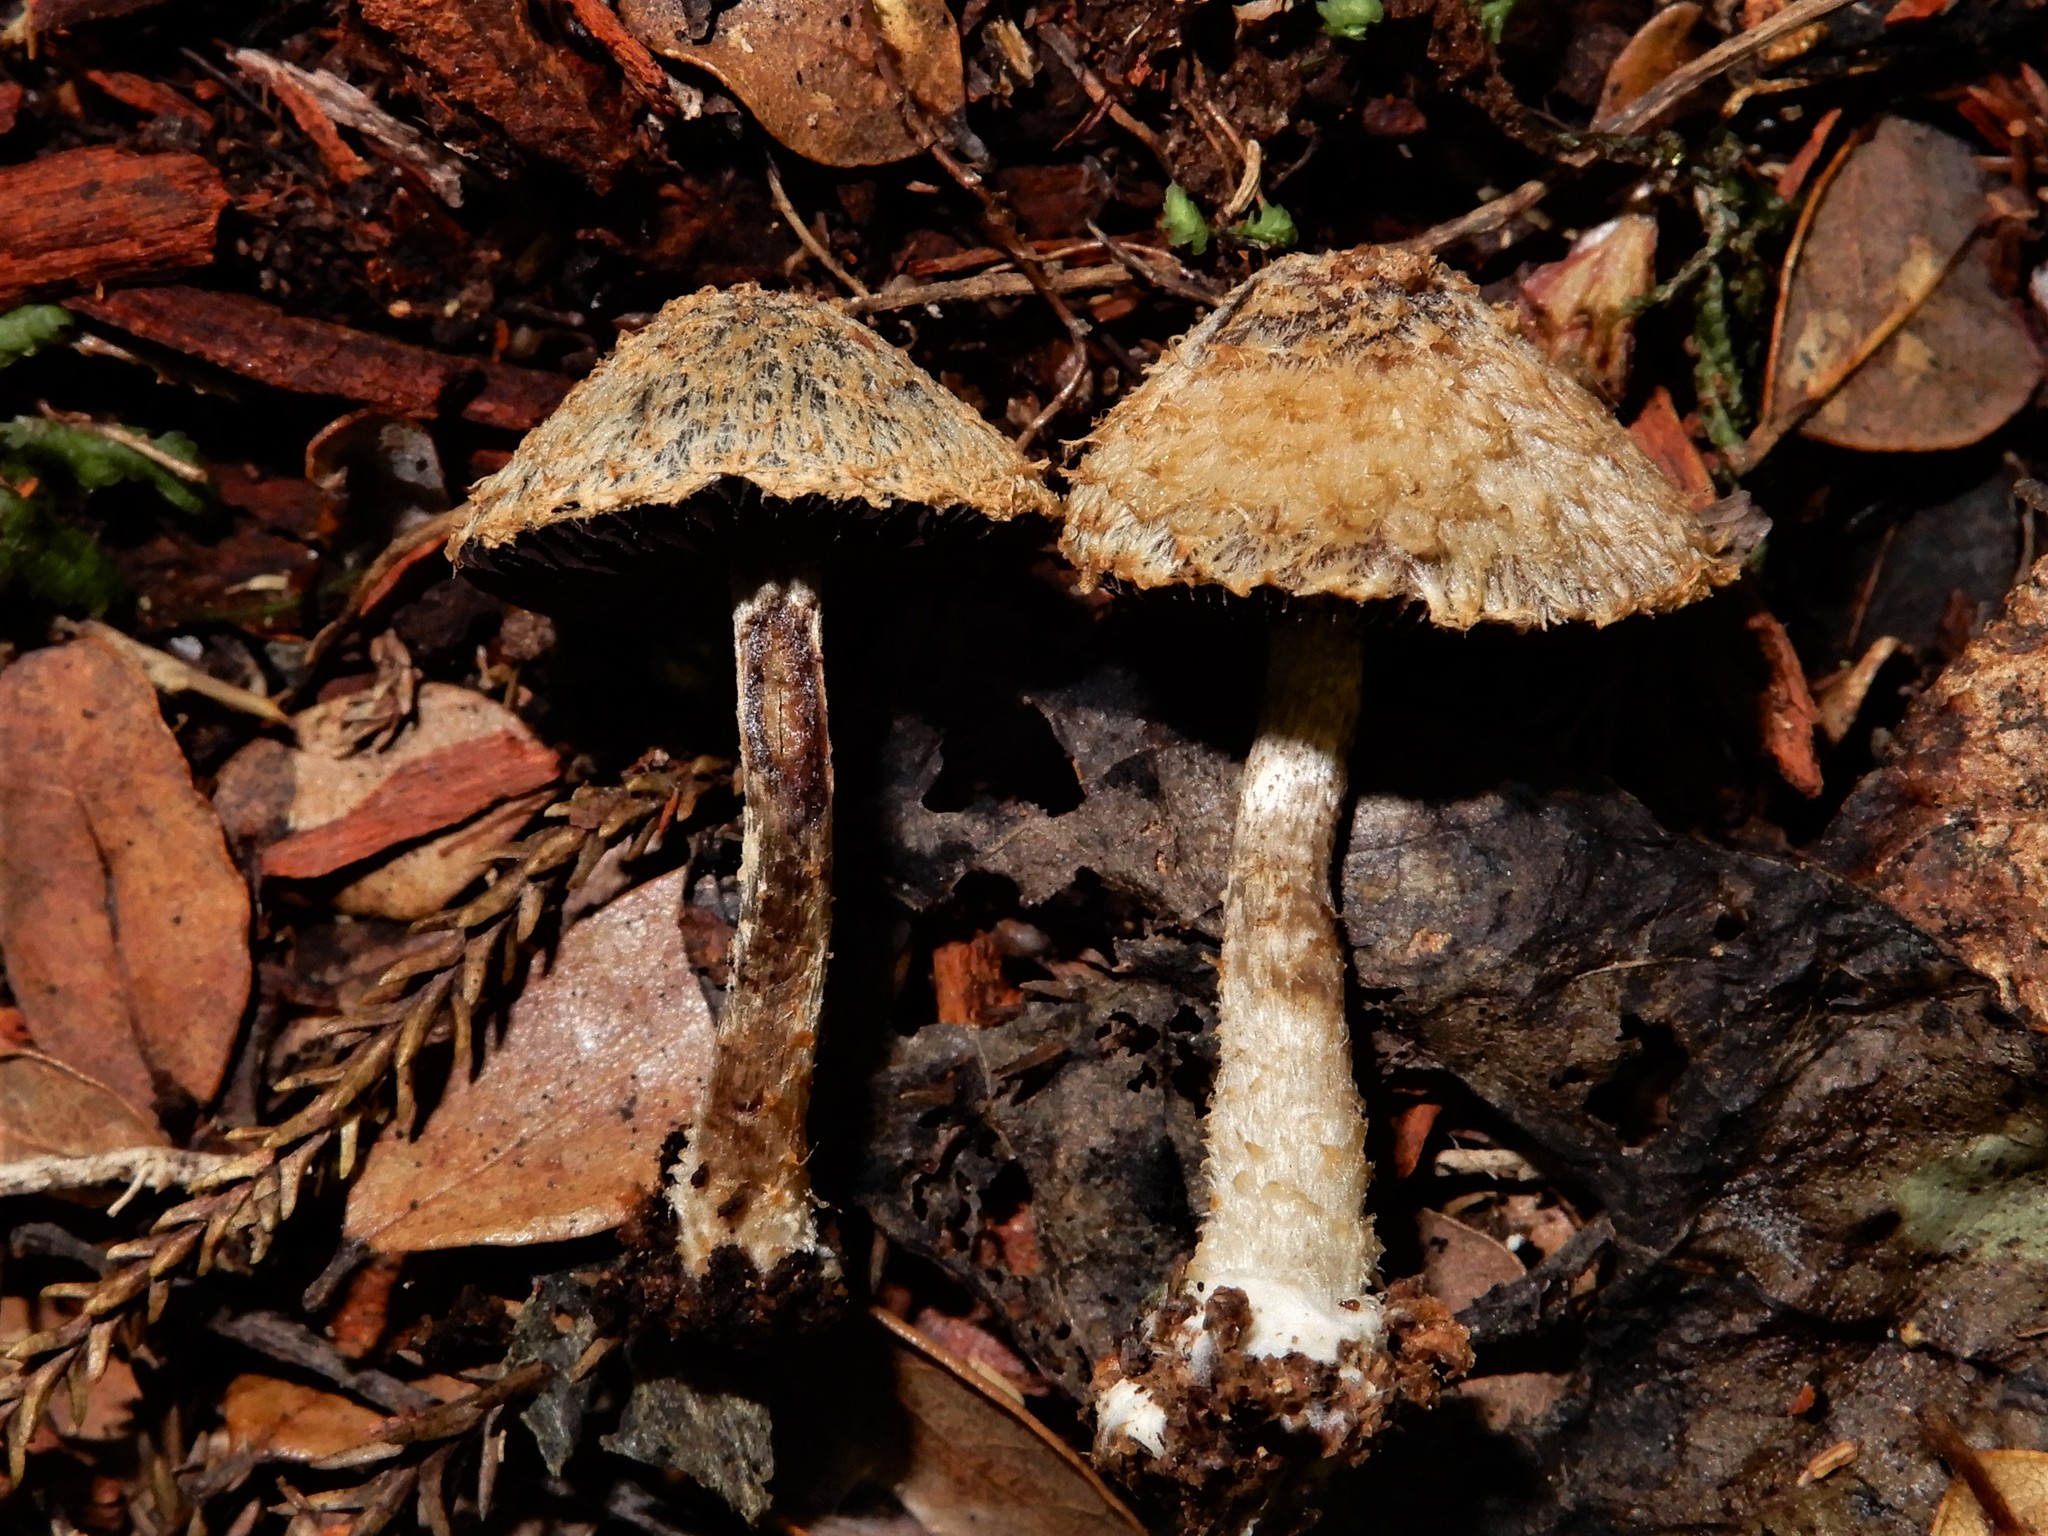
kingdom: Fungi
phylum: Basidiomycota
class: Agaricomycetes
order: Agaricales
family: Psathyrellaceae
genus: Psathyrella
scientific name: Psathyrella asperospora
